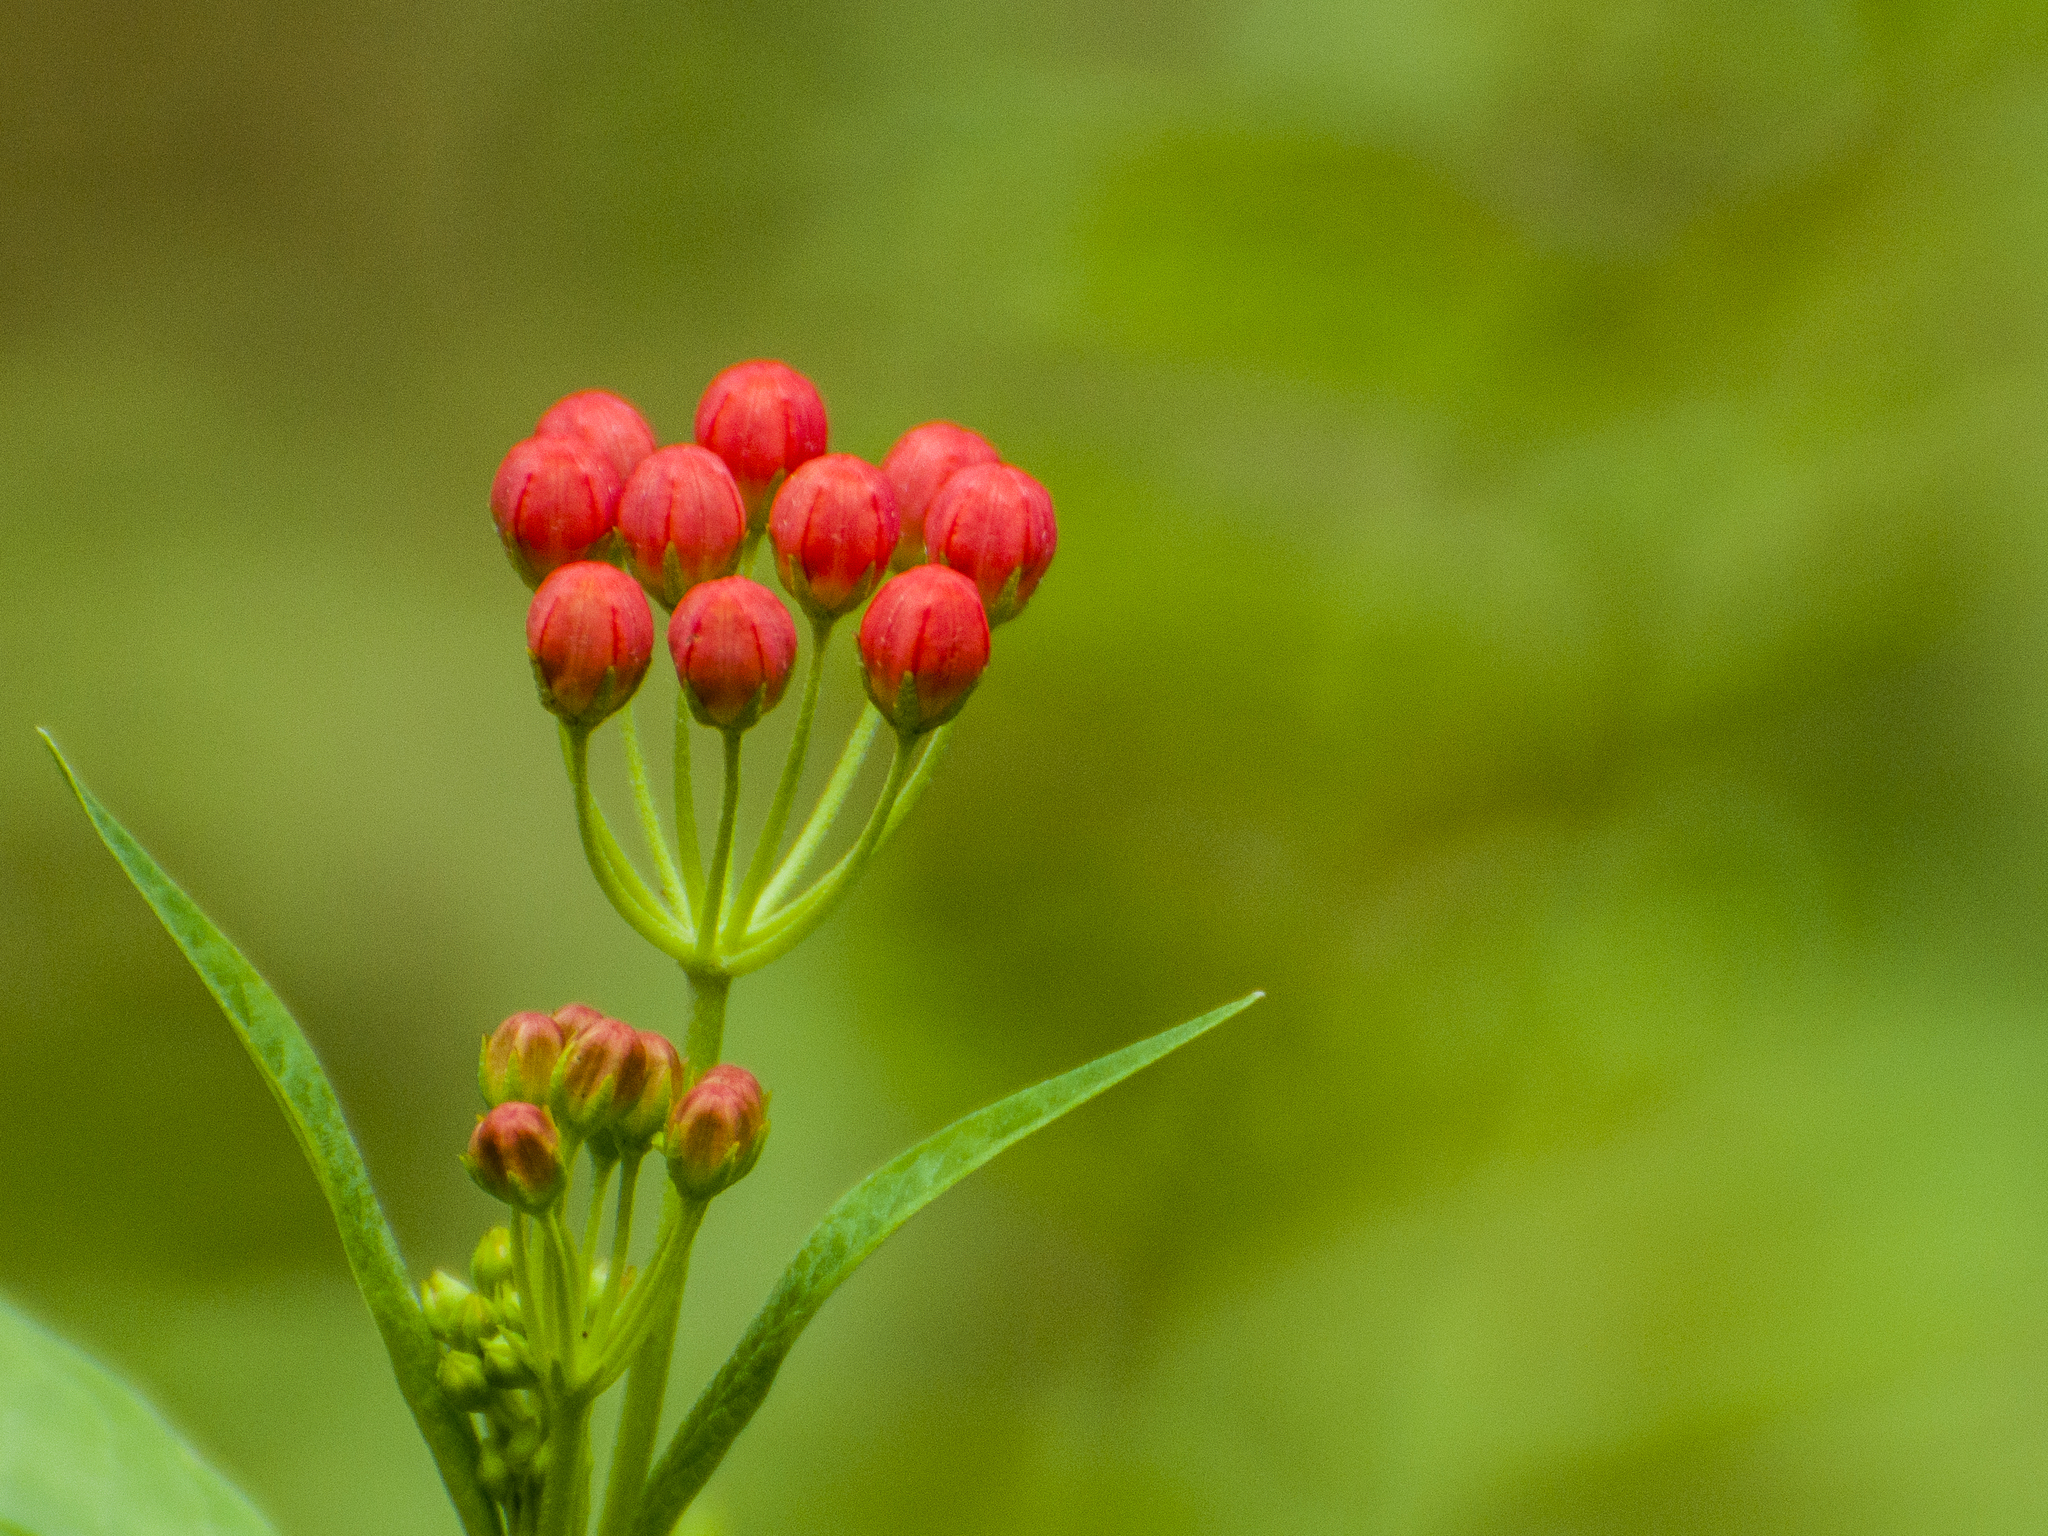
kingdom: Plantae
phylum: Tracheophyta
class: Magnoliopsida
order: Gentianales
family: Apocynaceae
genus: Asclepias
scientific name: Asclepias curassavica
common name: Bloodflower
